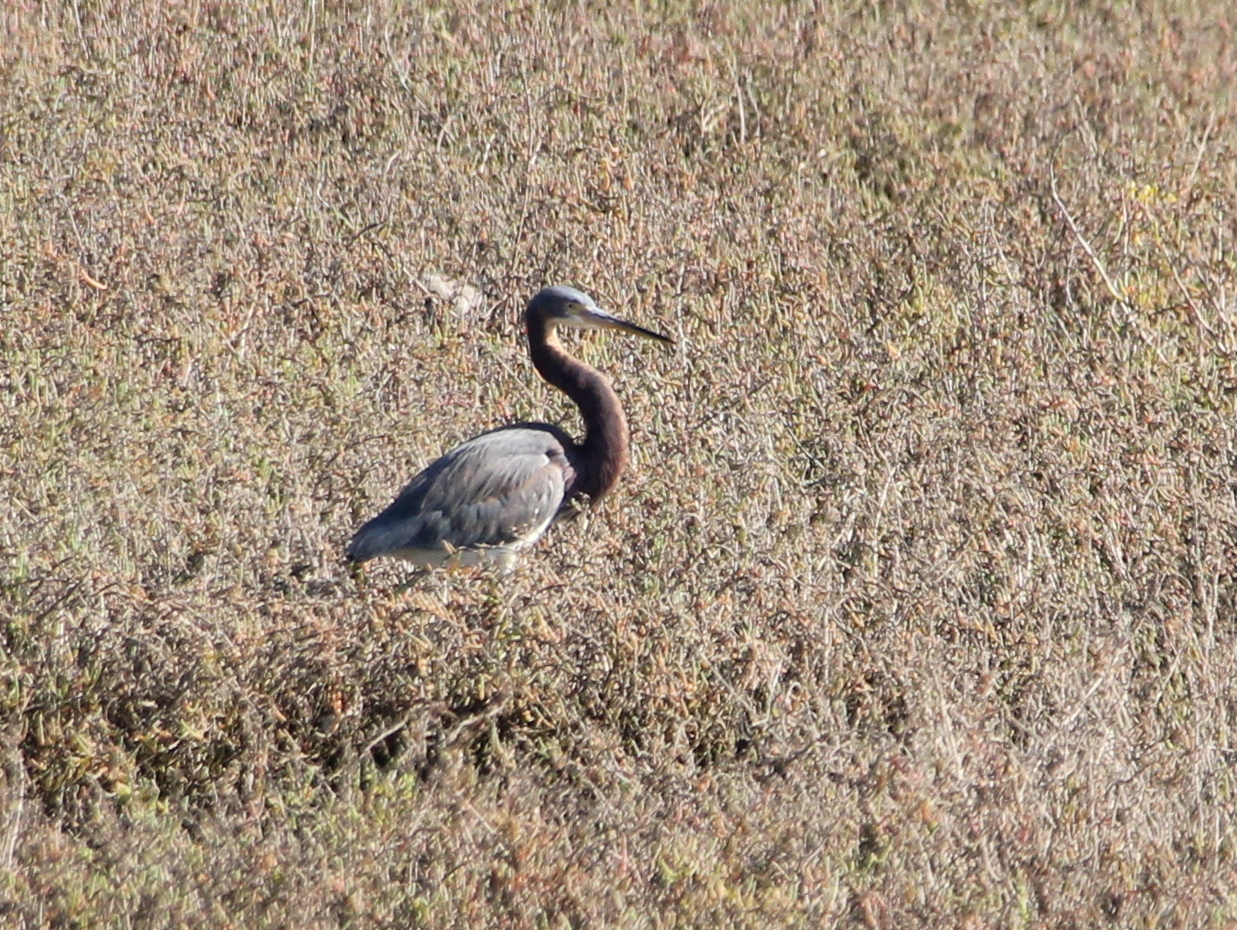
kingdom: Animalia
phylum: Chordata
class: Aves
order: Pelecaniformes
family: Ardeidae
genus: Egretta
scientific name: Egretta tricolor
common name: Tricolored heron
